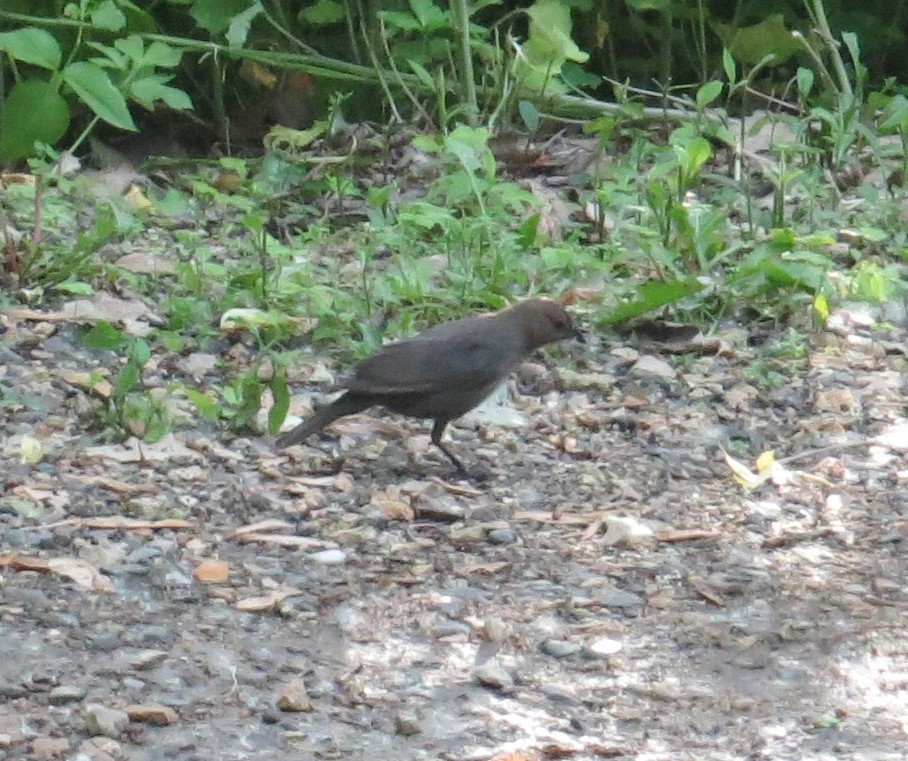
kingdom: Animalia
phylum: Chordata
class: Aves
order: Passeriformes
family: Icteridae
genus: Molothrus
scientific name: Molothrus ater
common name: Brown-headed cowbird
